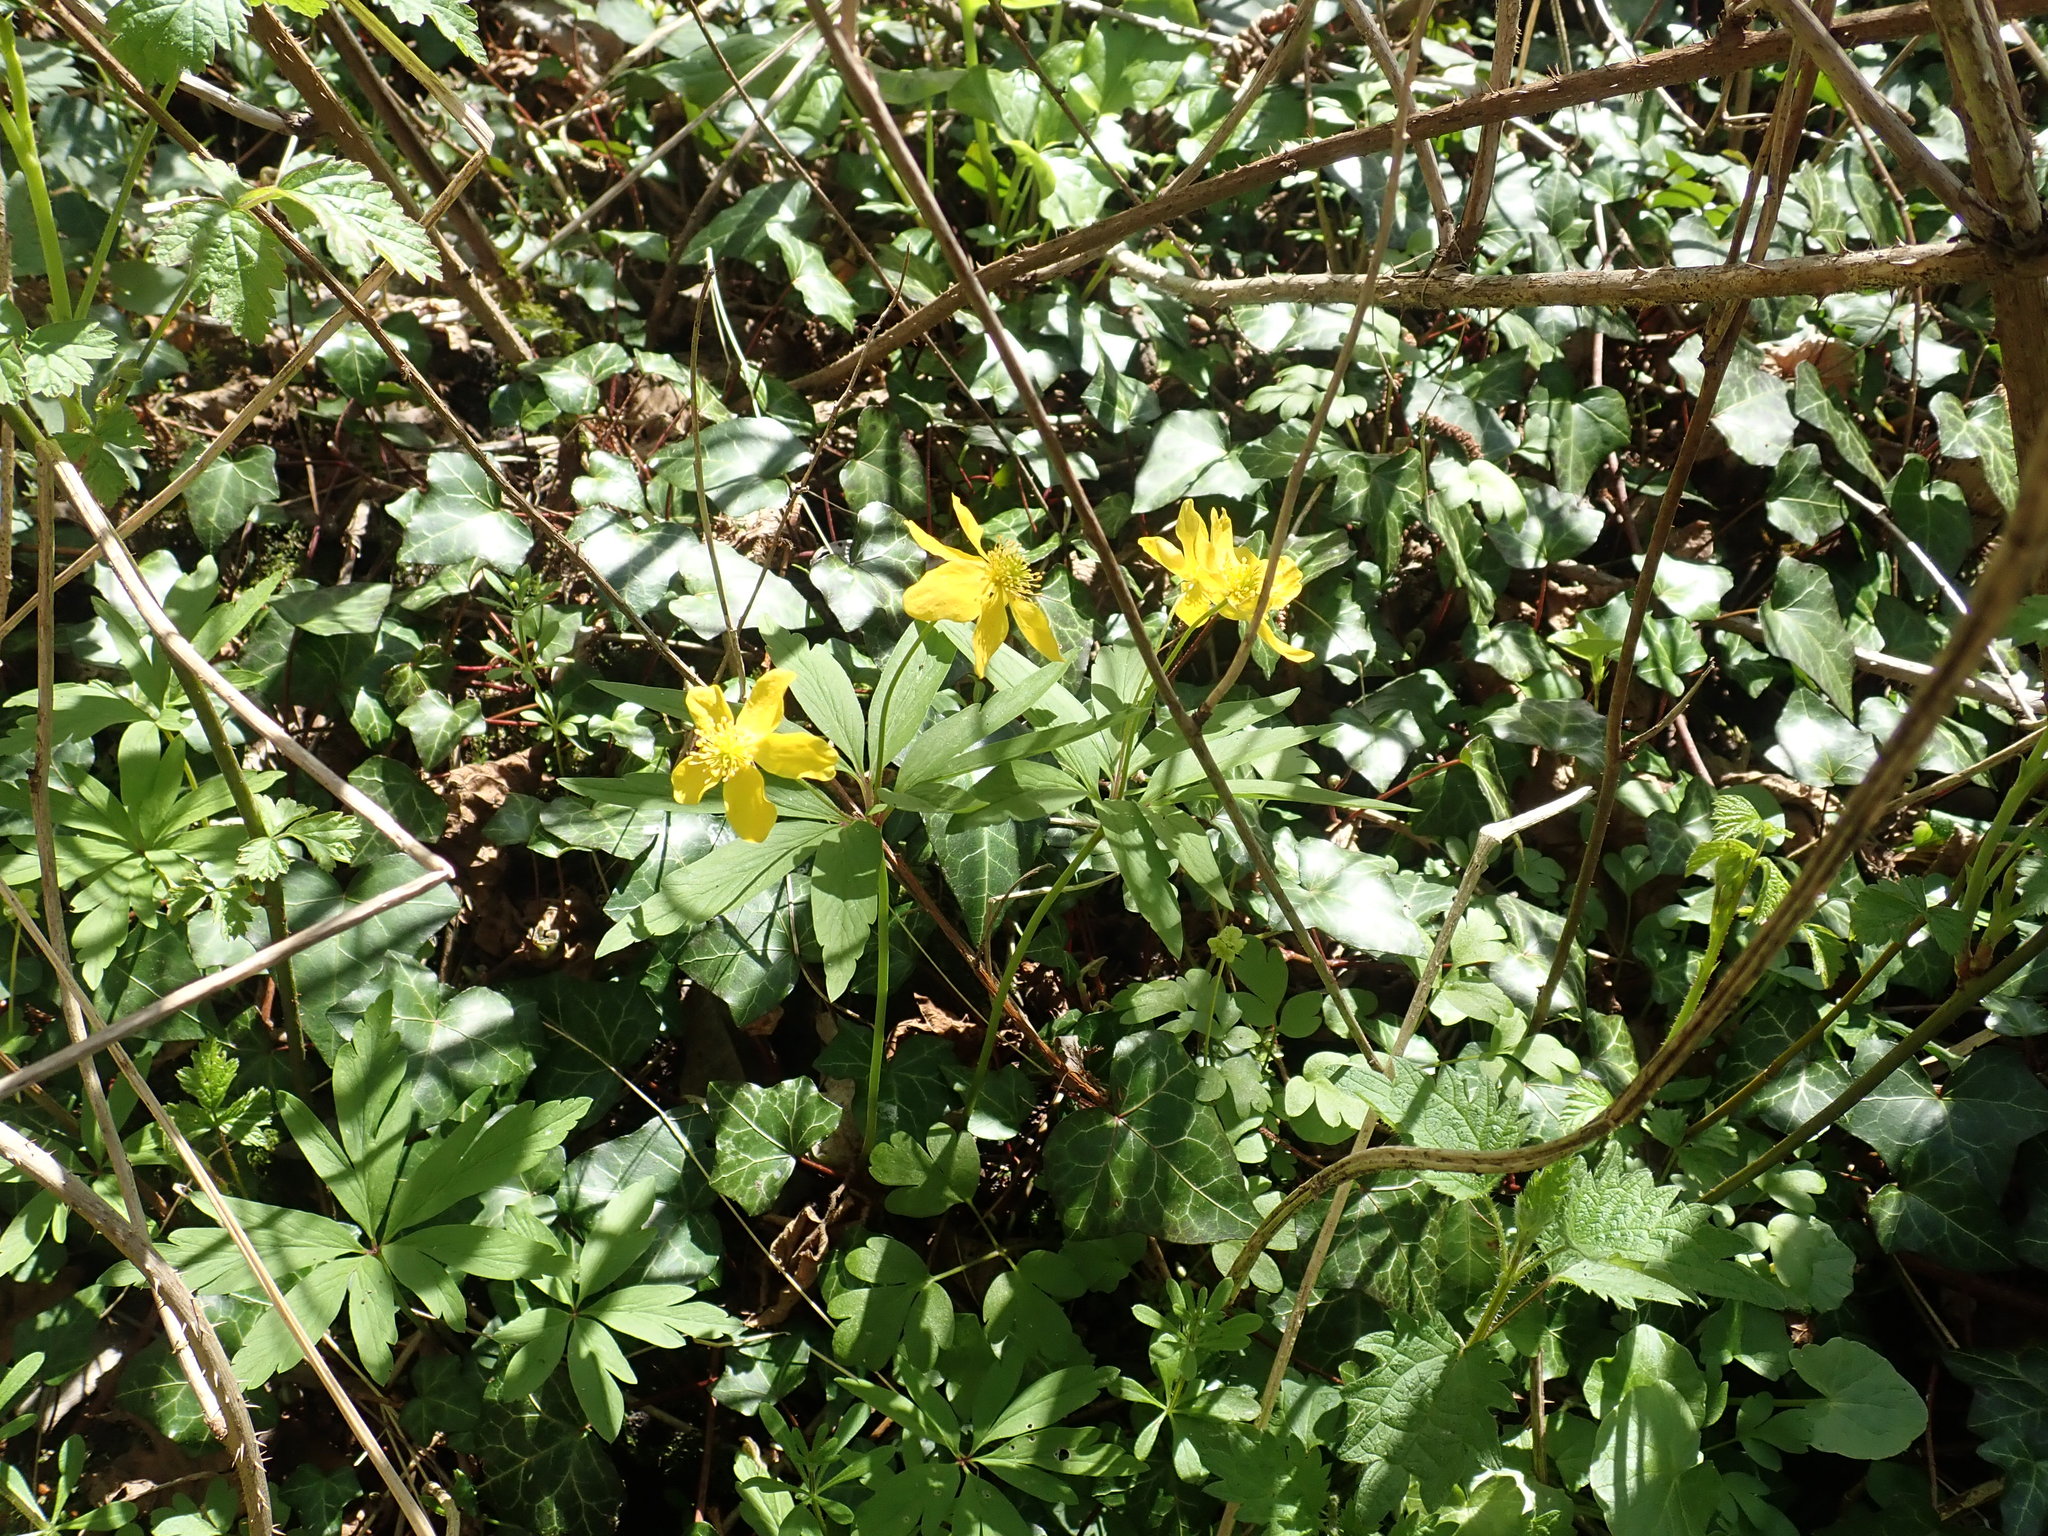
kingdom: Plantae
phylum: Tracheophyta
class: Magnoliopsida
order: Ranunculales
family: Ranunculaceae
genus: Anemone
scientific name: Anemone ranunculoides
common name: Yellow anemone
